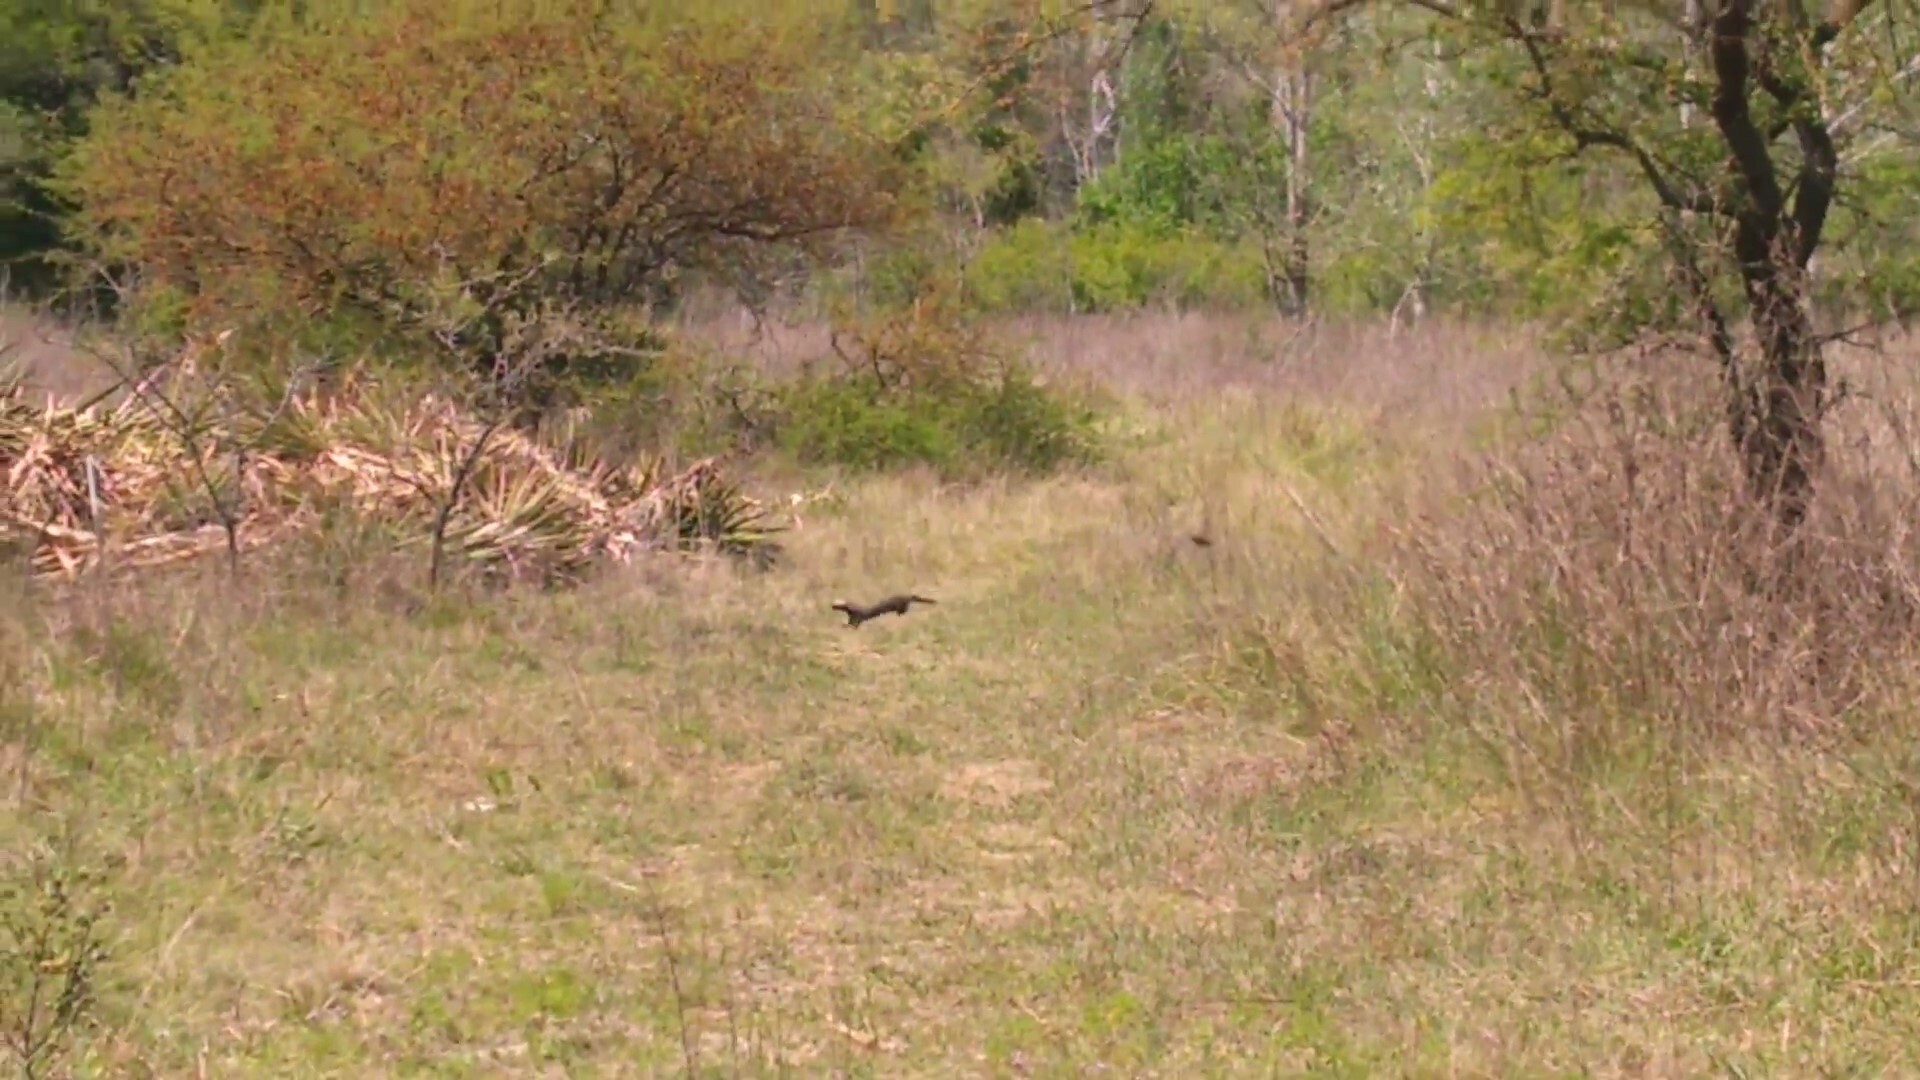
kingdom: Animalia
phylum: Chordata
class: Mammalia
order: Carnivora
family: Mustelidae
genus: Galictis
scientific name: Galictis cuja
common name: Lesser grison
